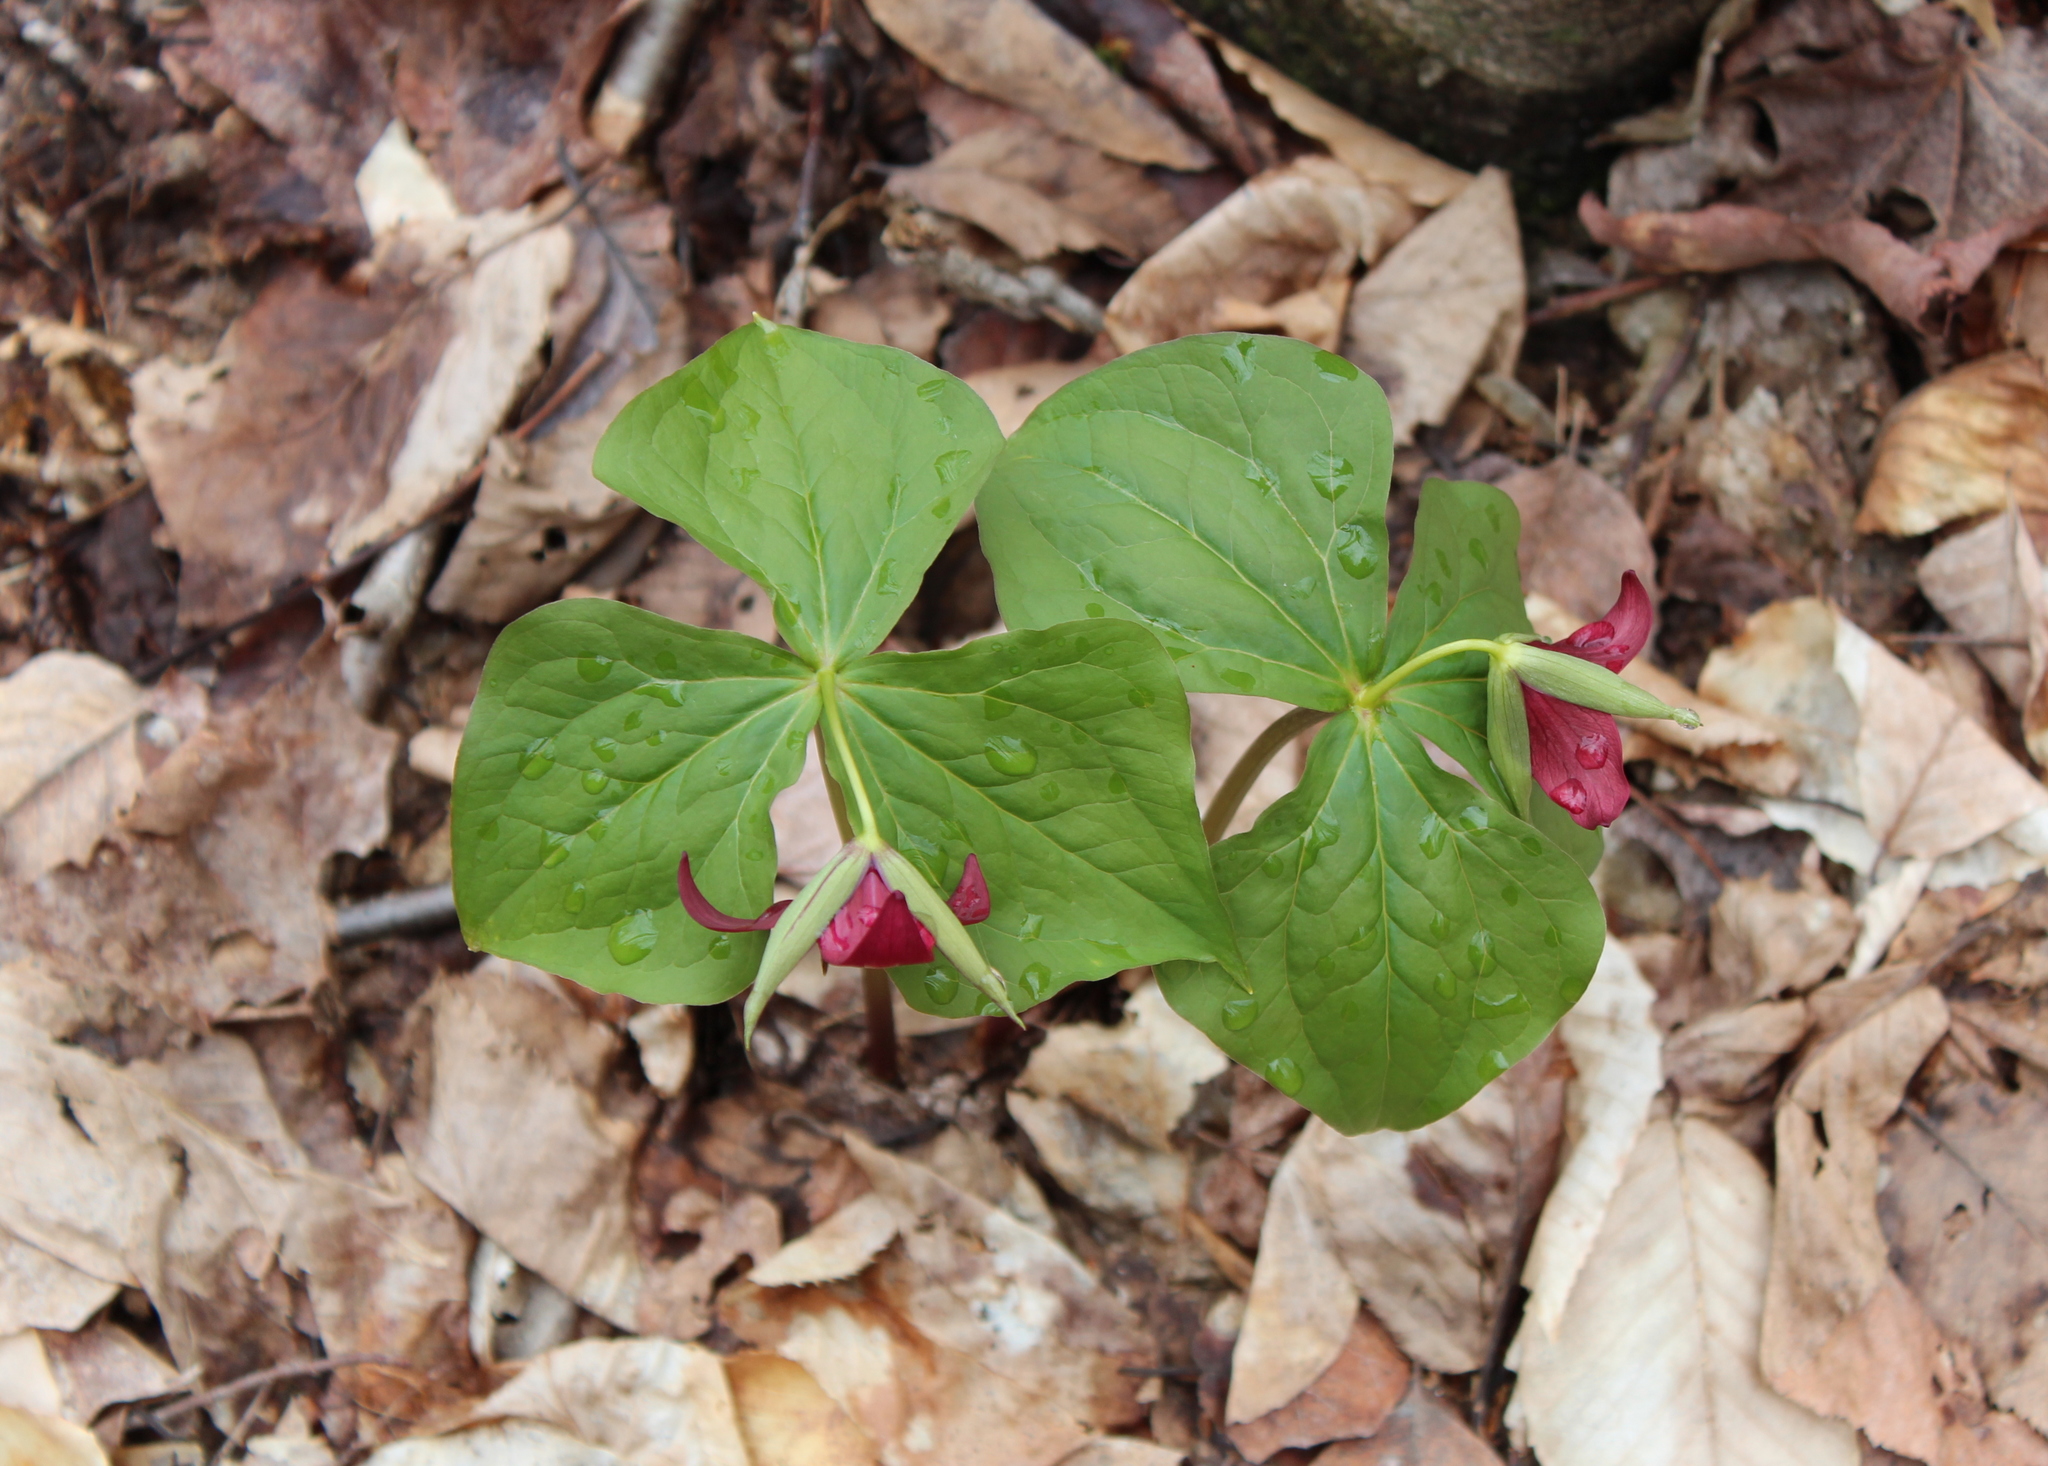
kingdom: Plantae
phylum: Tracheophyta
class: Liliopsida
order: Liliales
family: Melanthiaceae
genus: Trillium
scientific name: Trillium erectum
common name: Purple trillium
